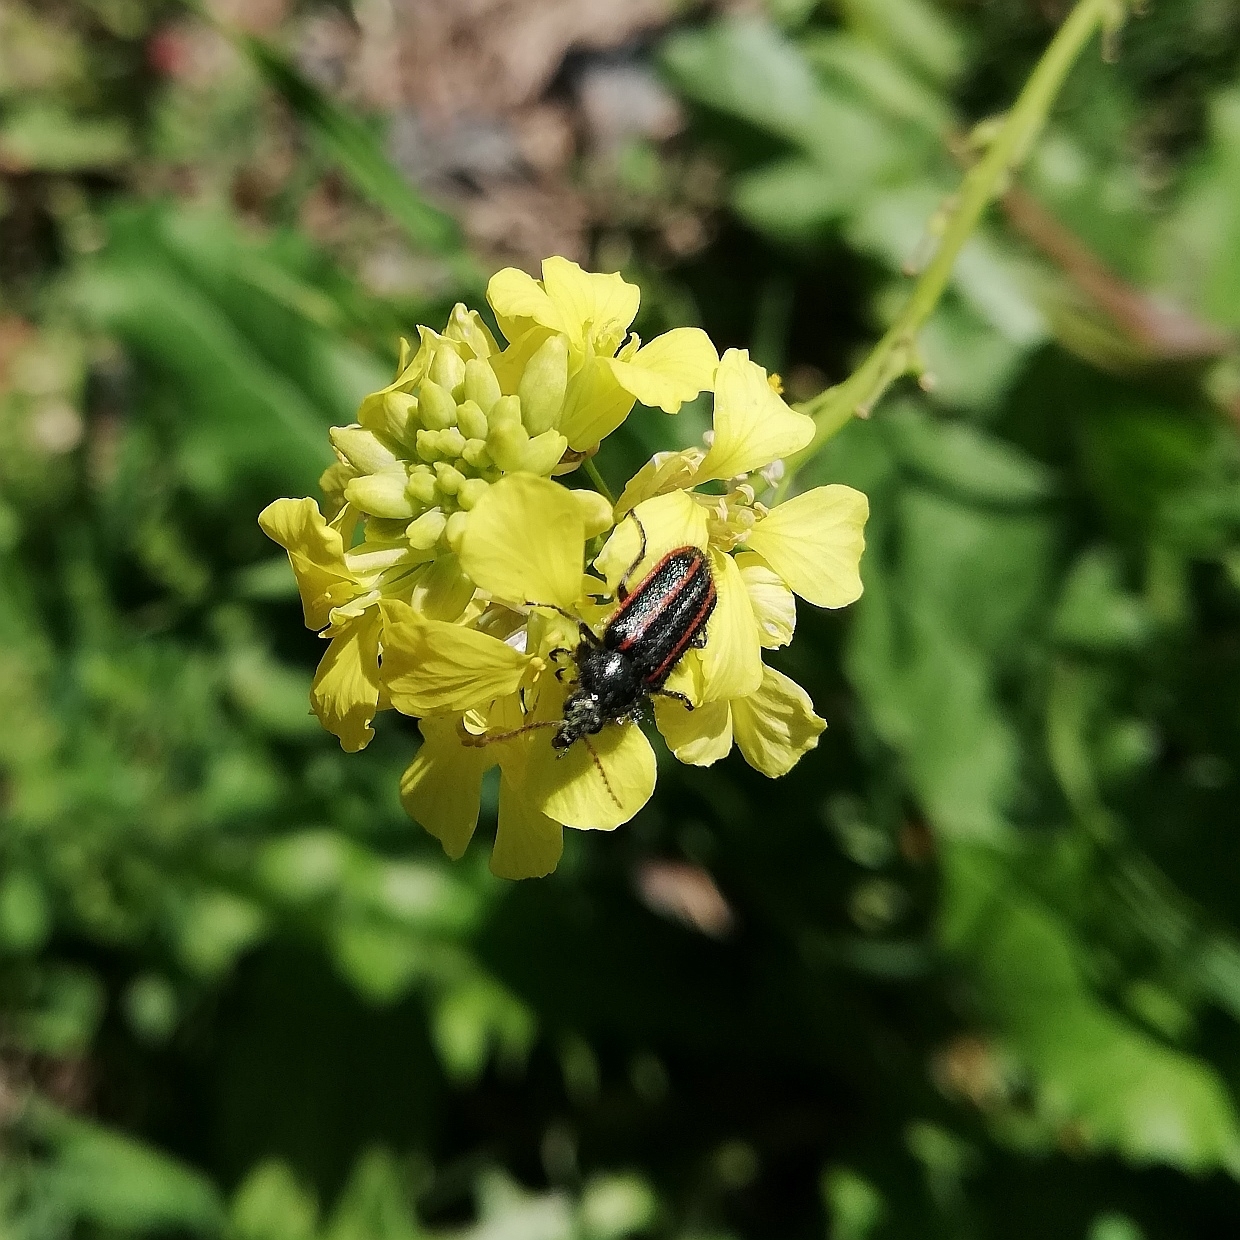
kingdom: Animalia
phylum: Arthropoda
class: Insecta
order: Coleoptera
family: Melyridae
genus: Astylus
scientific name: Astylus
